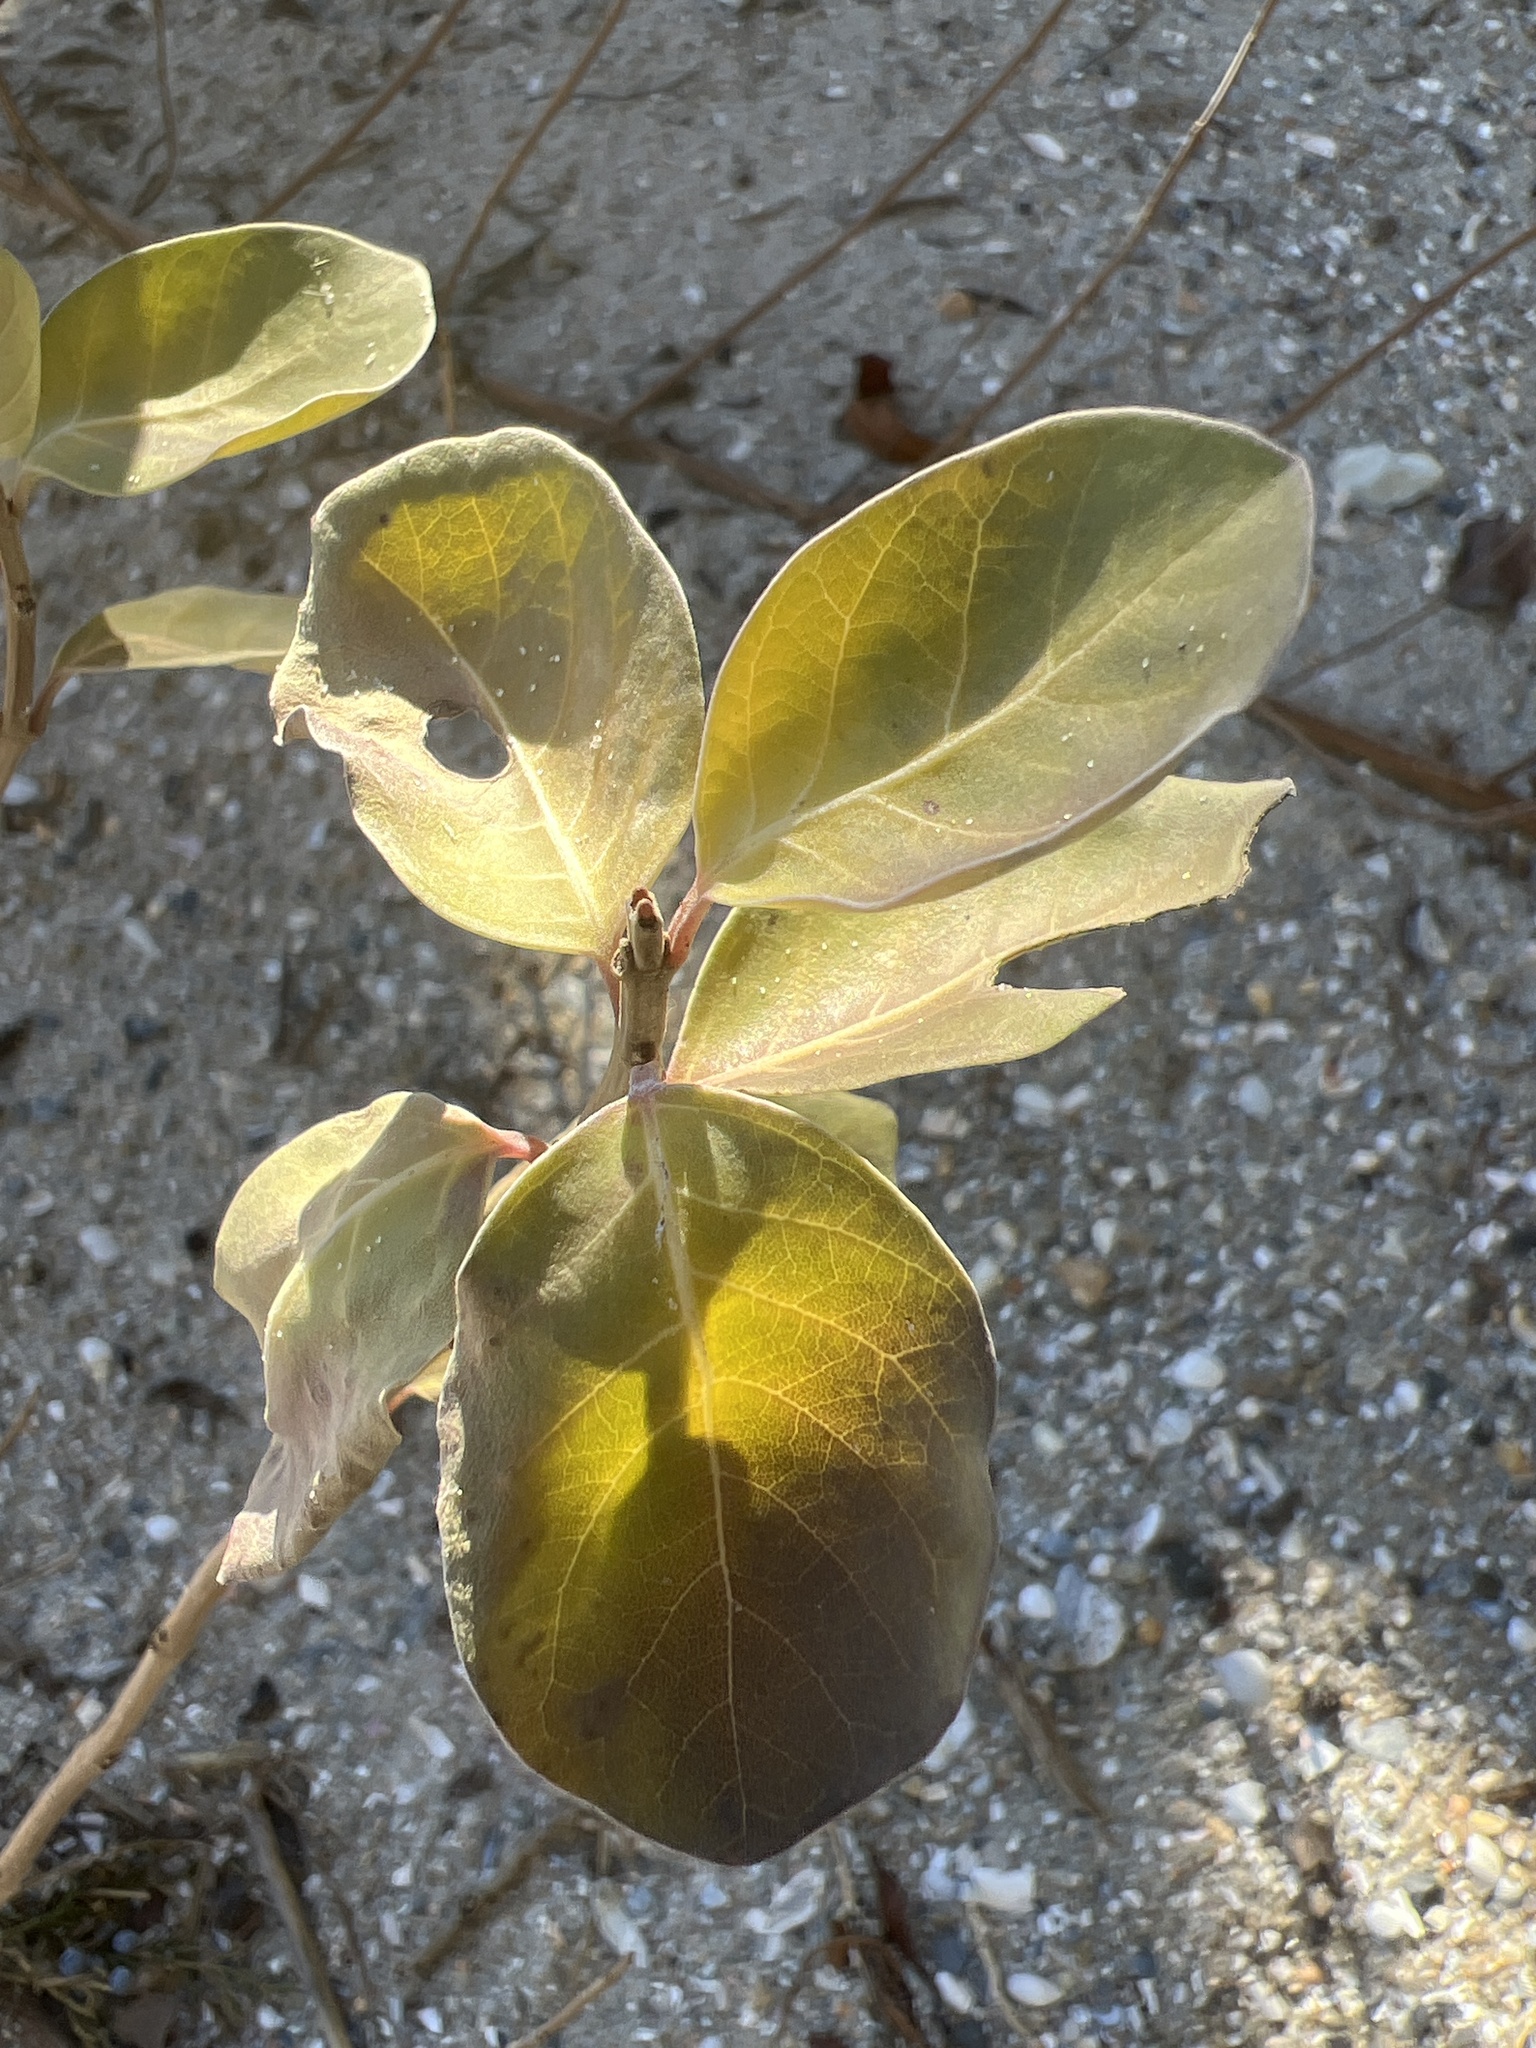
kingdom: Plantae
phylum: Tracheophyta
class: Magnoliopsida
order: Lamiales
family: Lamiaceae
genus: Vitex
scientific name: Vitex rotundifolia
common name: Beach vitex
